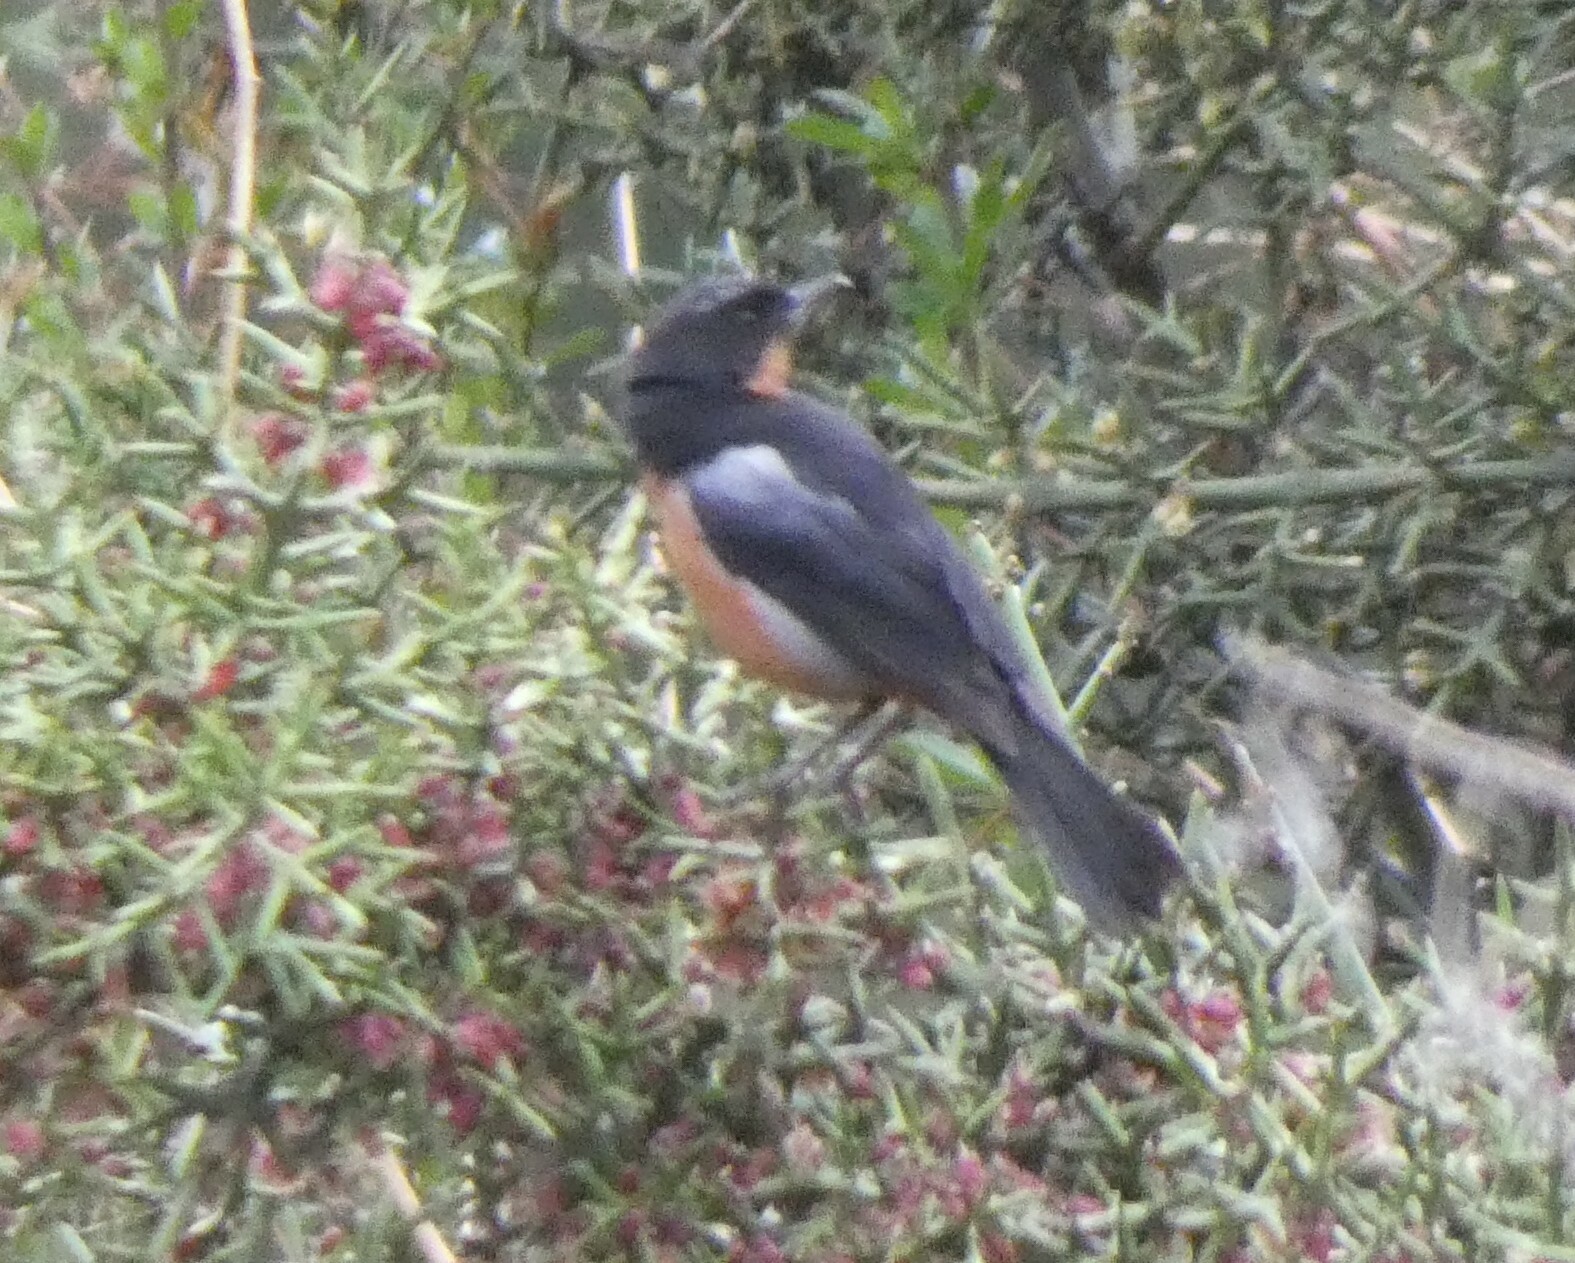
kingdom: Animalia
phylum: Chordata
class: Aves
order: Passeriformes
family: Thraupidae
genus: Diglossa
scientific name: Diglossa brunneiventris
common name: Black-throated flowerpiercer
